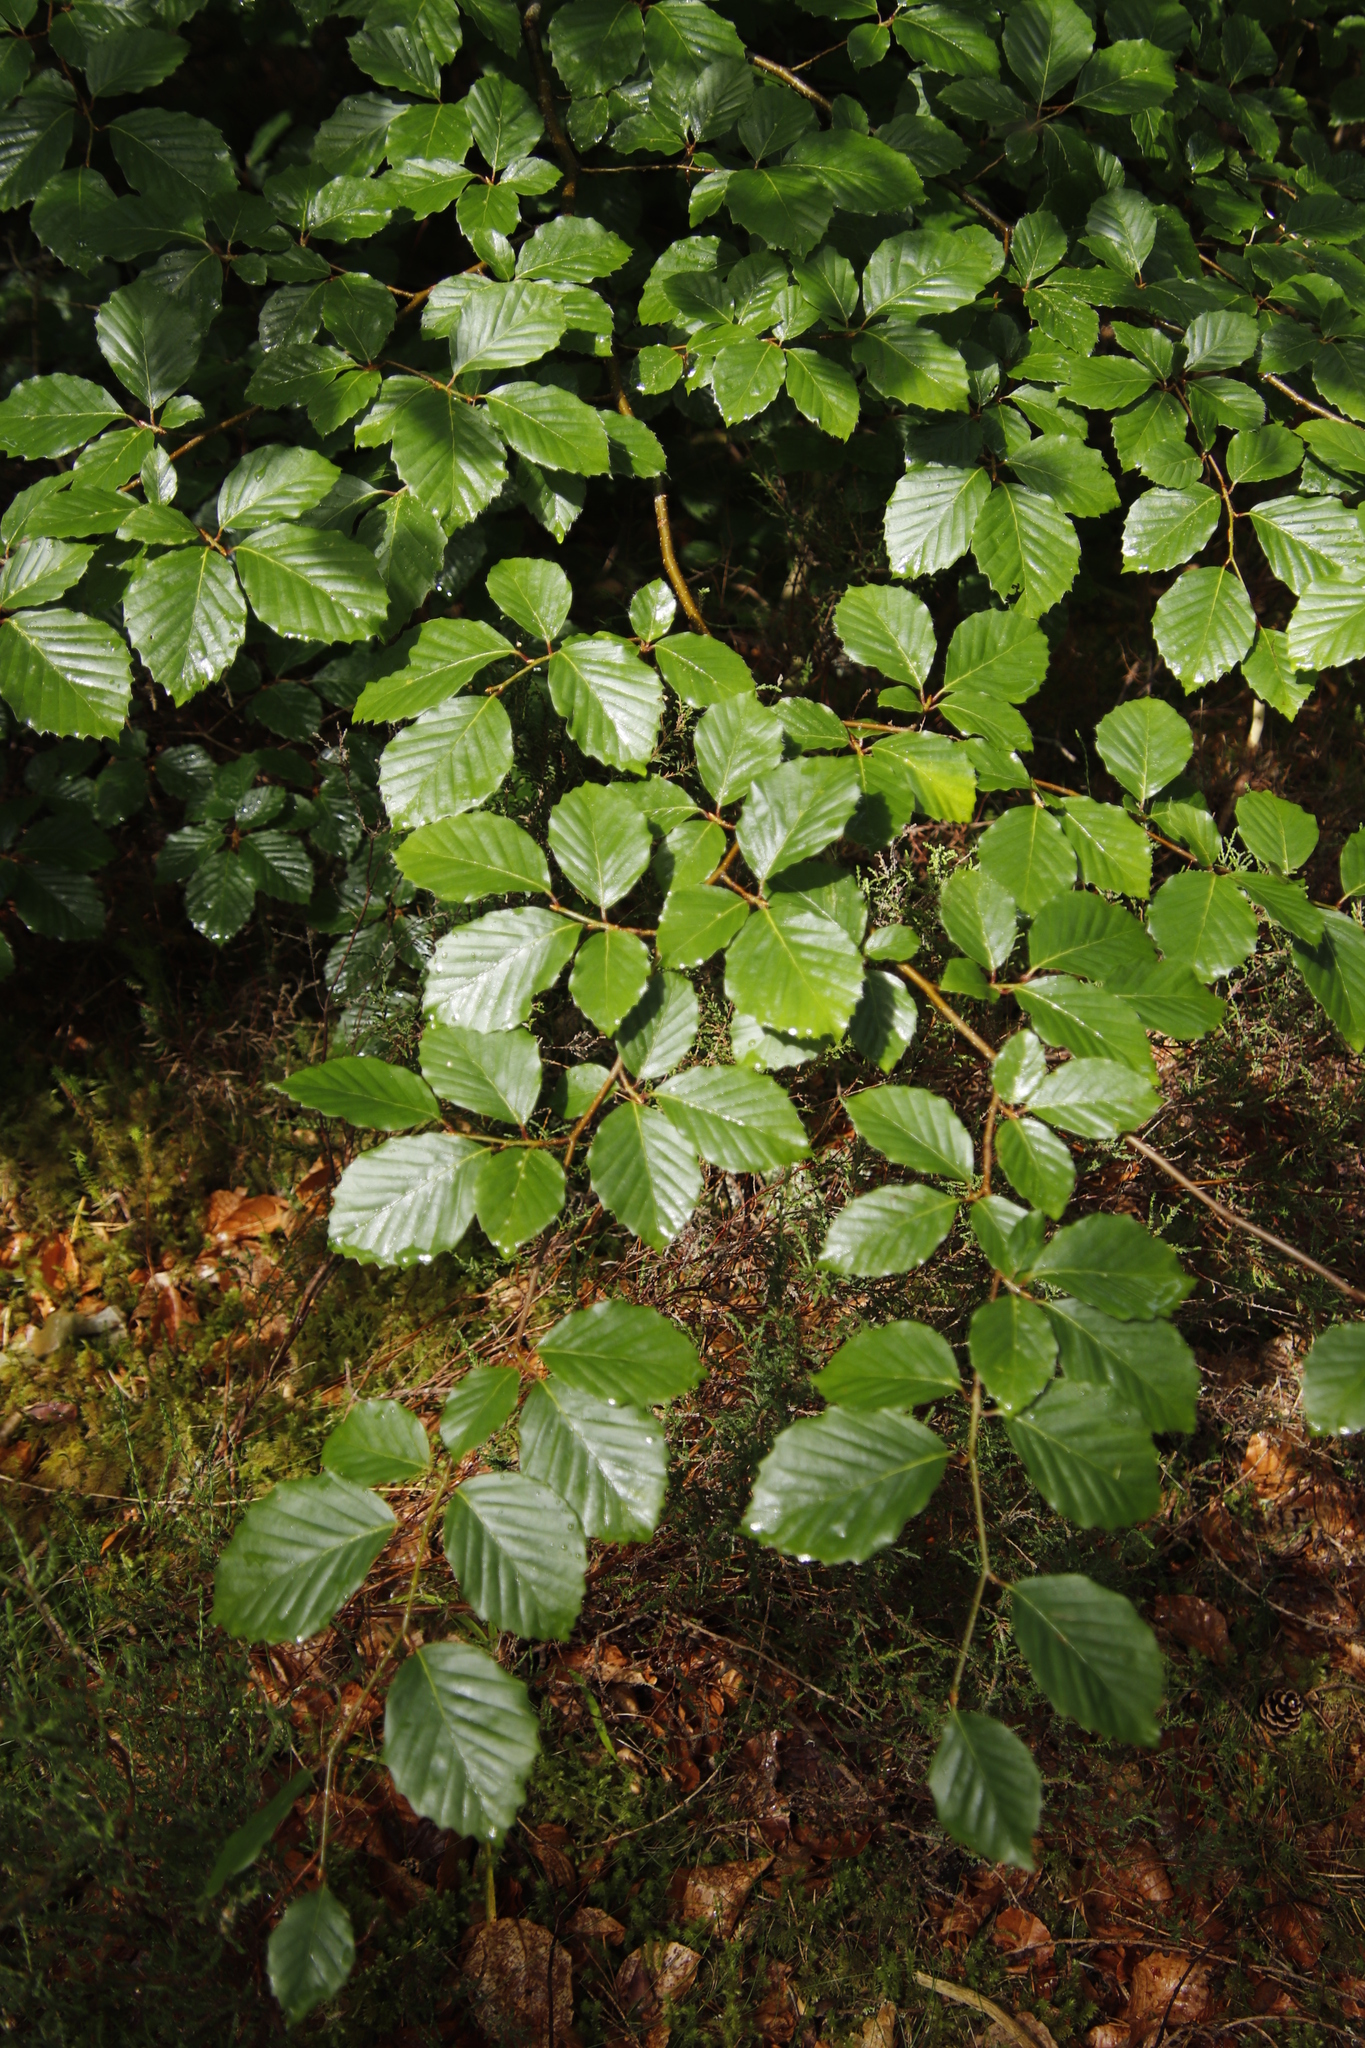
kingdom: Plantae
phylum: Tracheophyta
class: Magnoliopsida
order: Fagales
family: Fagaceae
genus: Fagus
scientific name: Fagus sylvatica
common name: Beech
